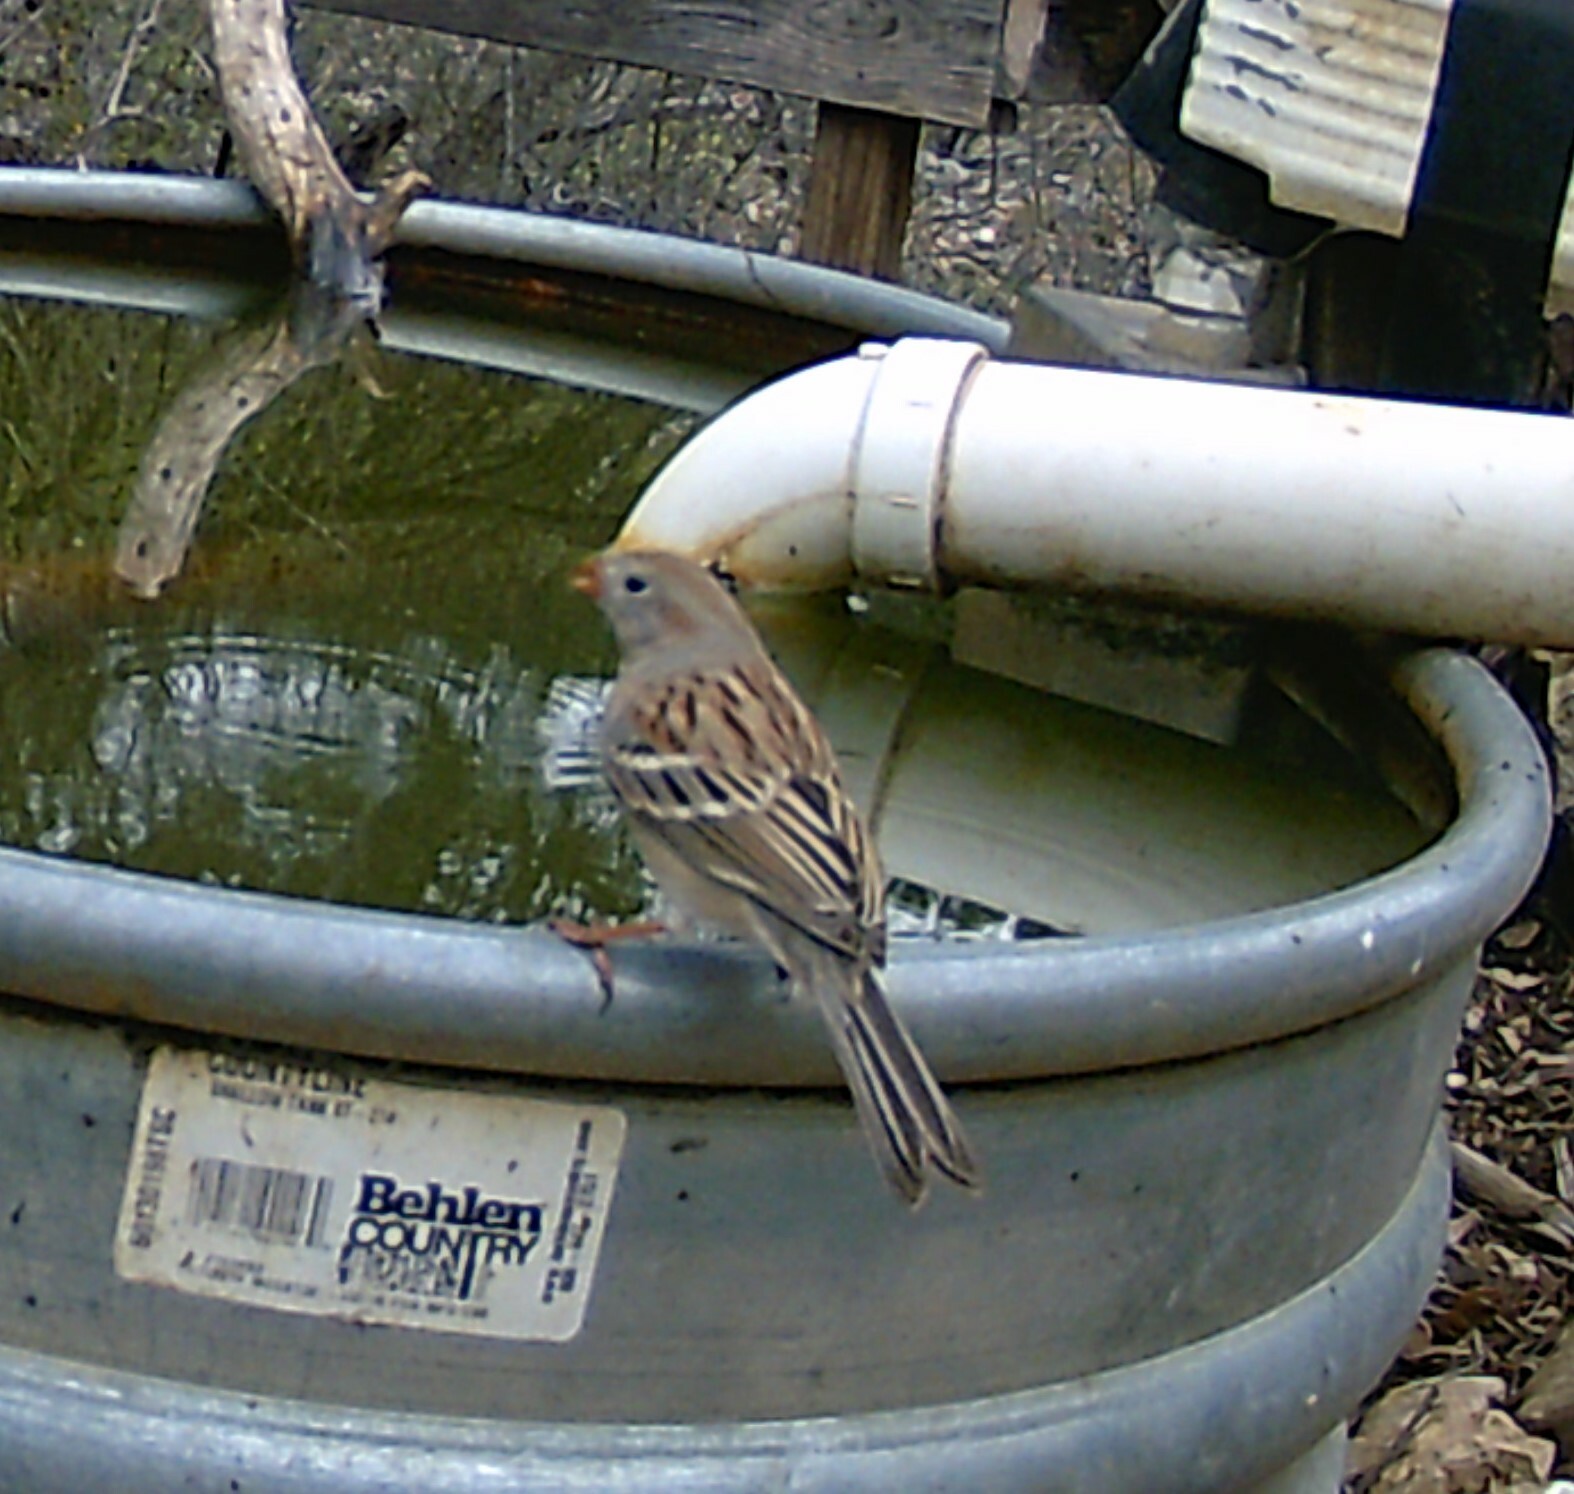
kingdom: Animalia
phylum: Chordata
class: Aves
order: Passeriformes
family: Passerellidae
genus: Spizella
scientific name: Spizella pusilla
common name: Field sparrow
